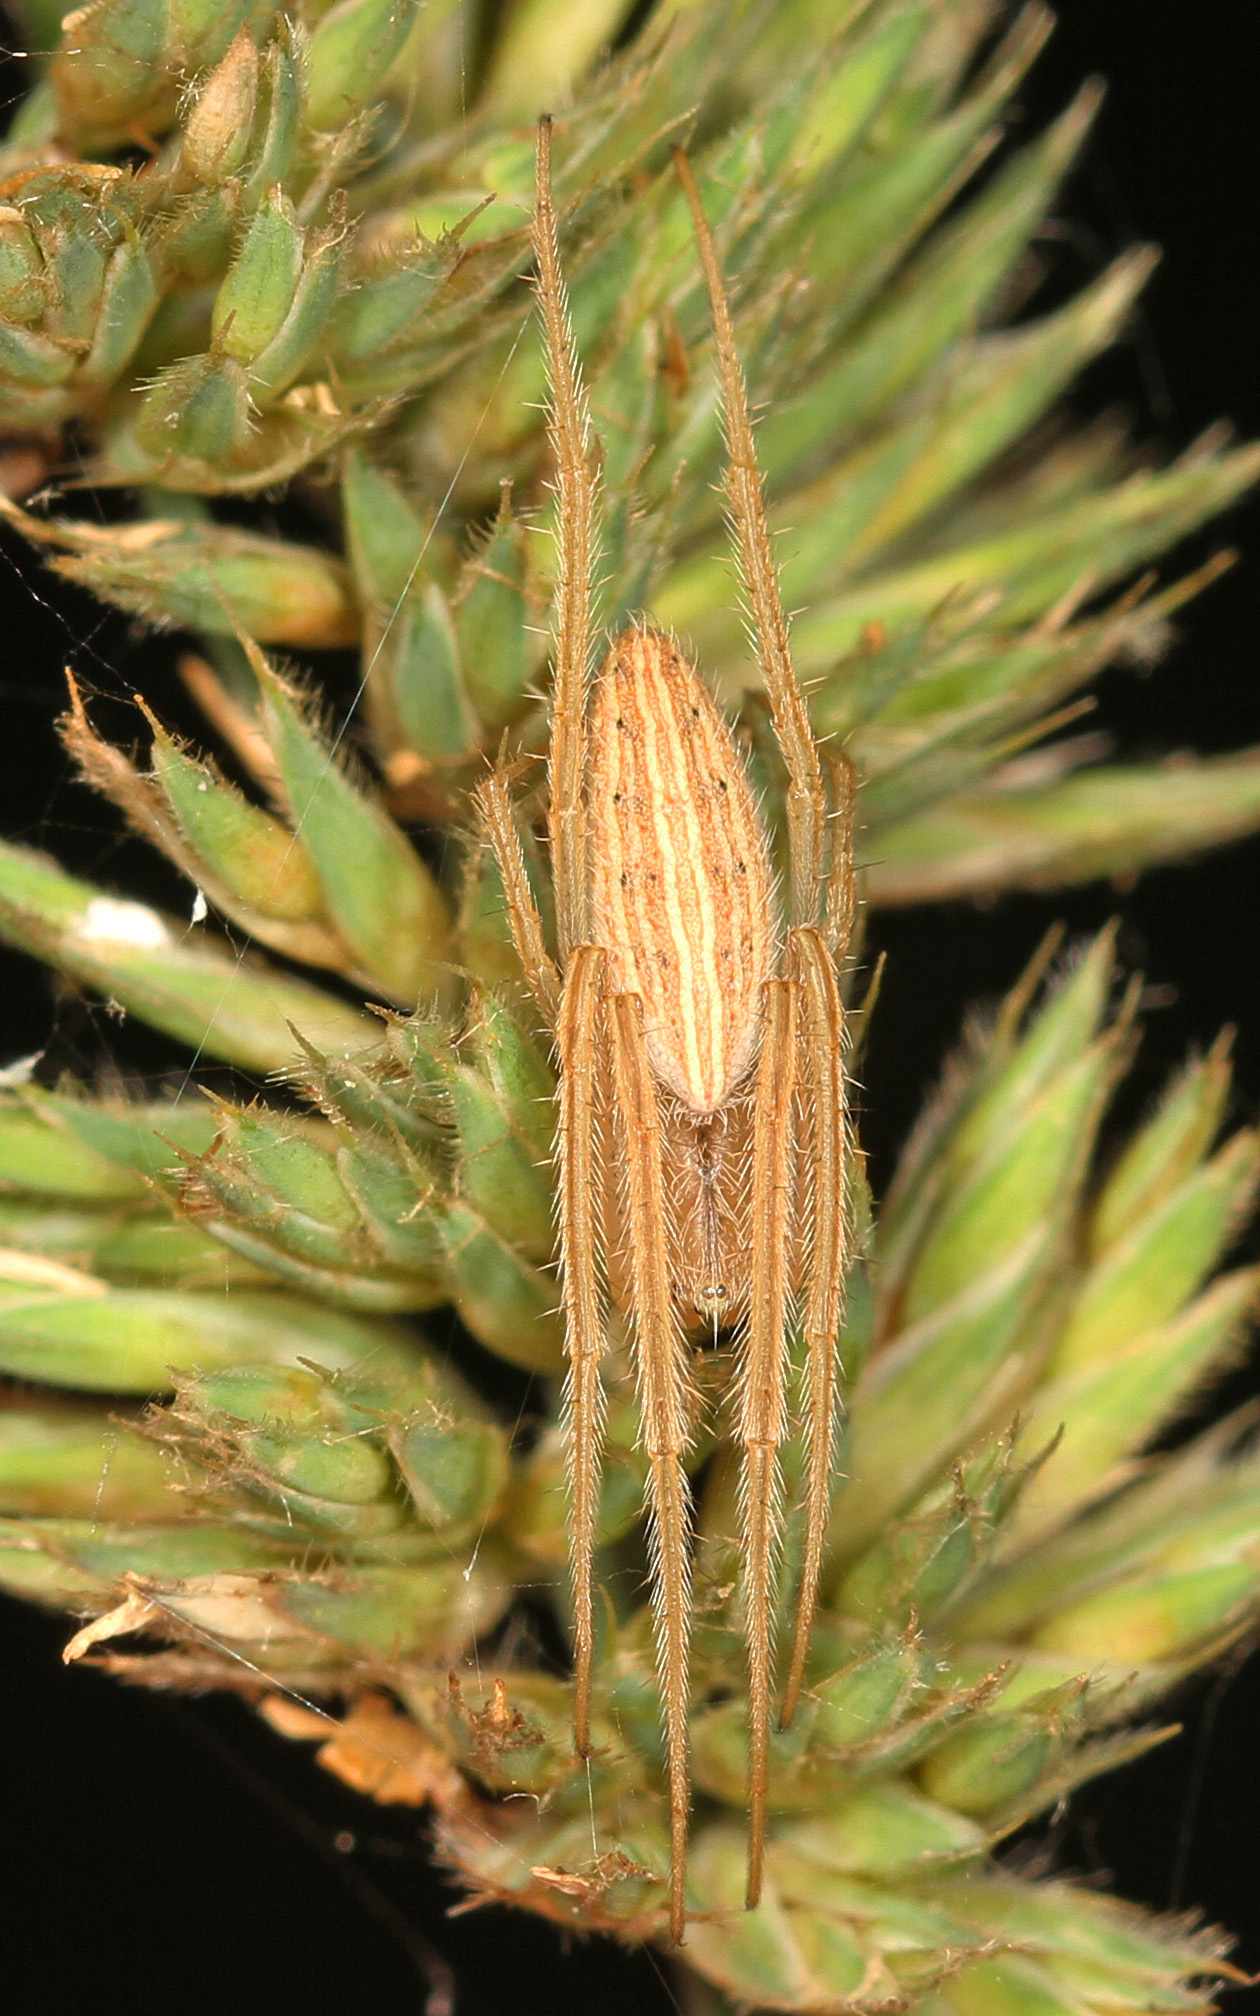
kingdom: Animalia
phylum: Arthropoda
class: Arachnida
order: Araneae
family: Araneidae
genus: Larinia
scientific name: Larinia directa
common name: Orb weavers
